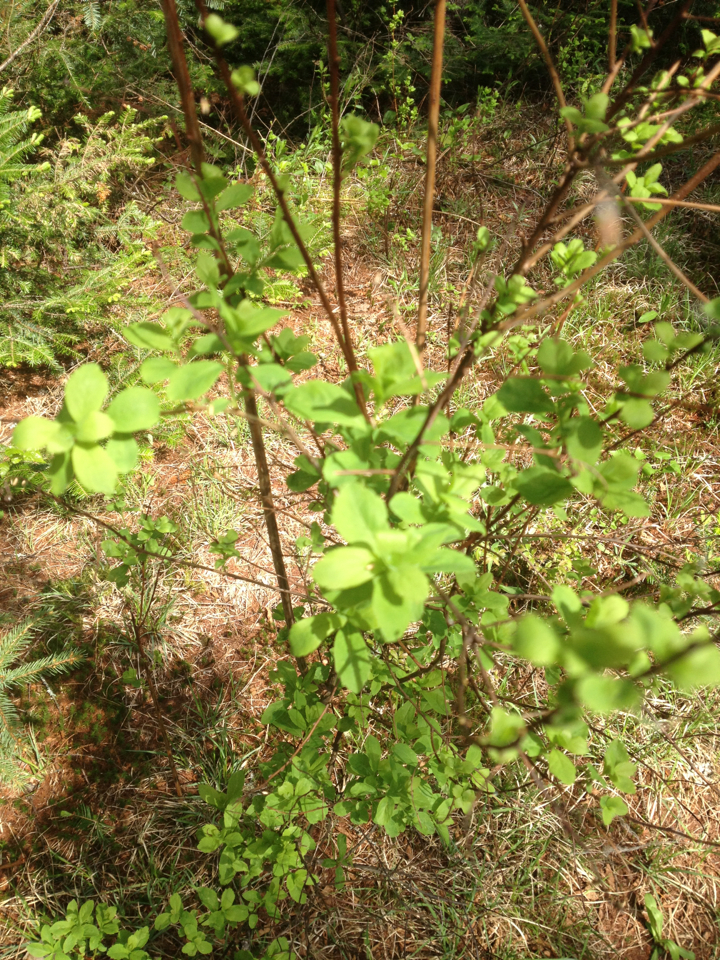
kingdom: Plantae
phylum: Tracheophyta
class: Magnoliopsida
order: Rosales
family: Rosaceae
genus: Spiraea
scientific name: Spiraea alba
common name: Pale bridewort
